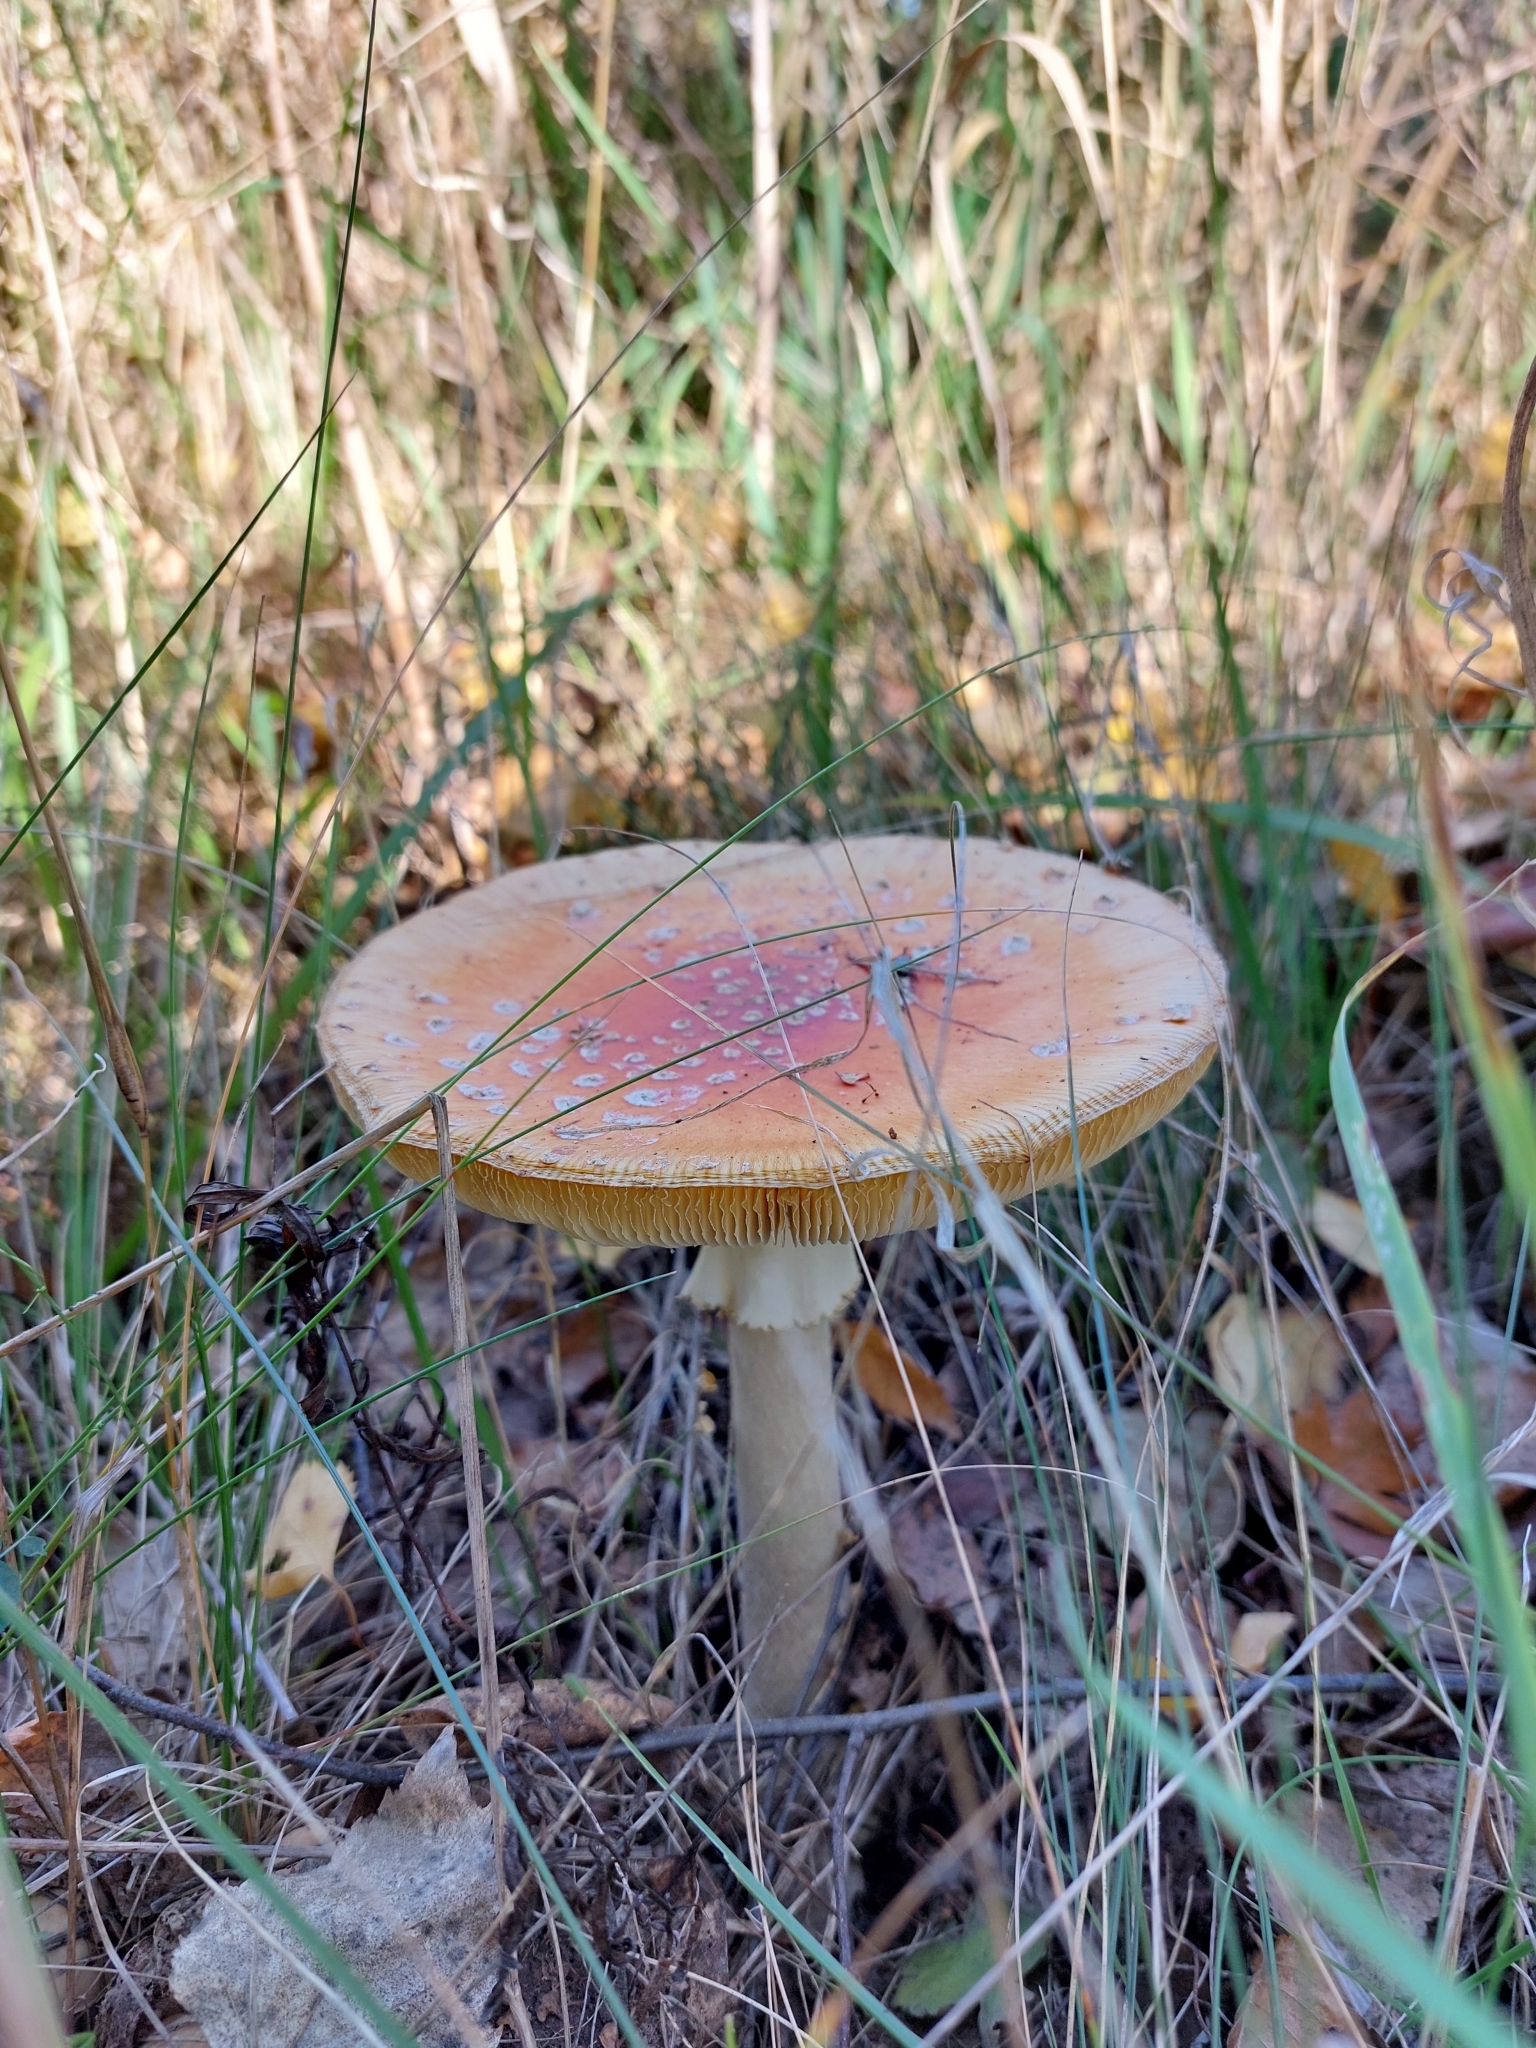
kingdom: Fungi
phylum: Basidiomycota
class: Agaricomycetes
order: Agaricales
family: Amanitaceae
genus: Amanita
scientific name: Amanita muscaria
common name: Fly agaric
